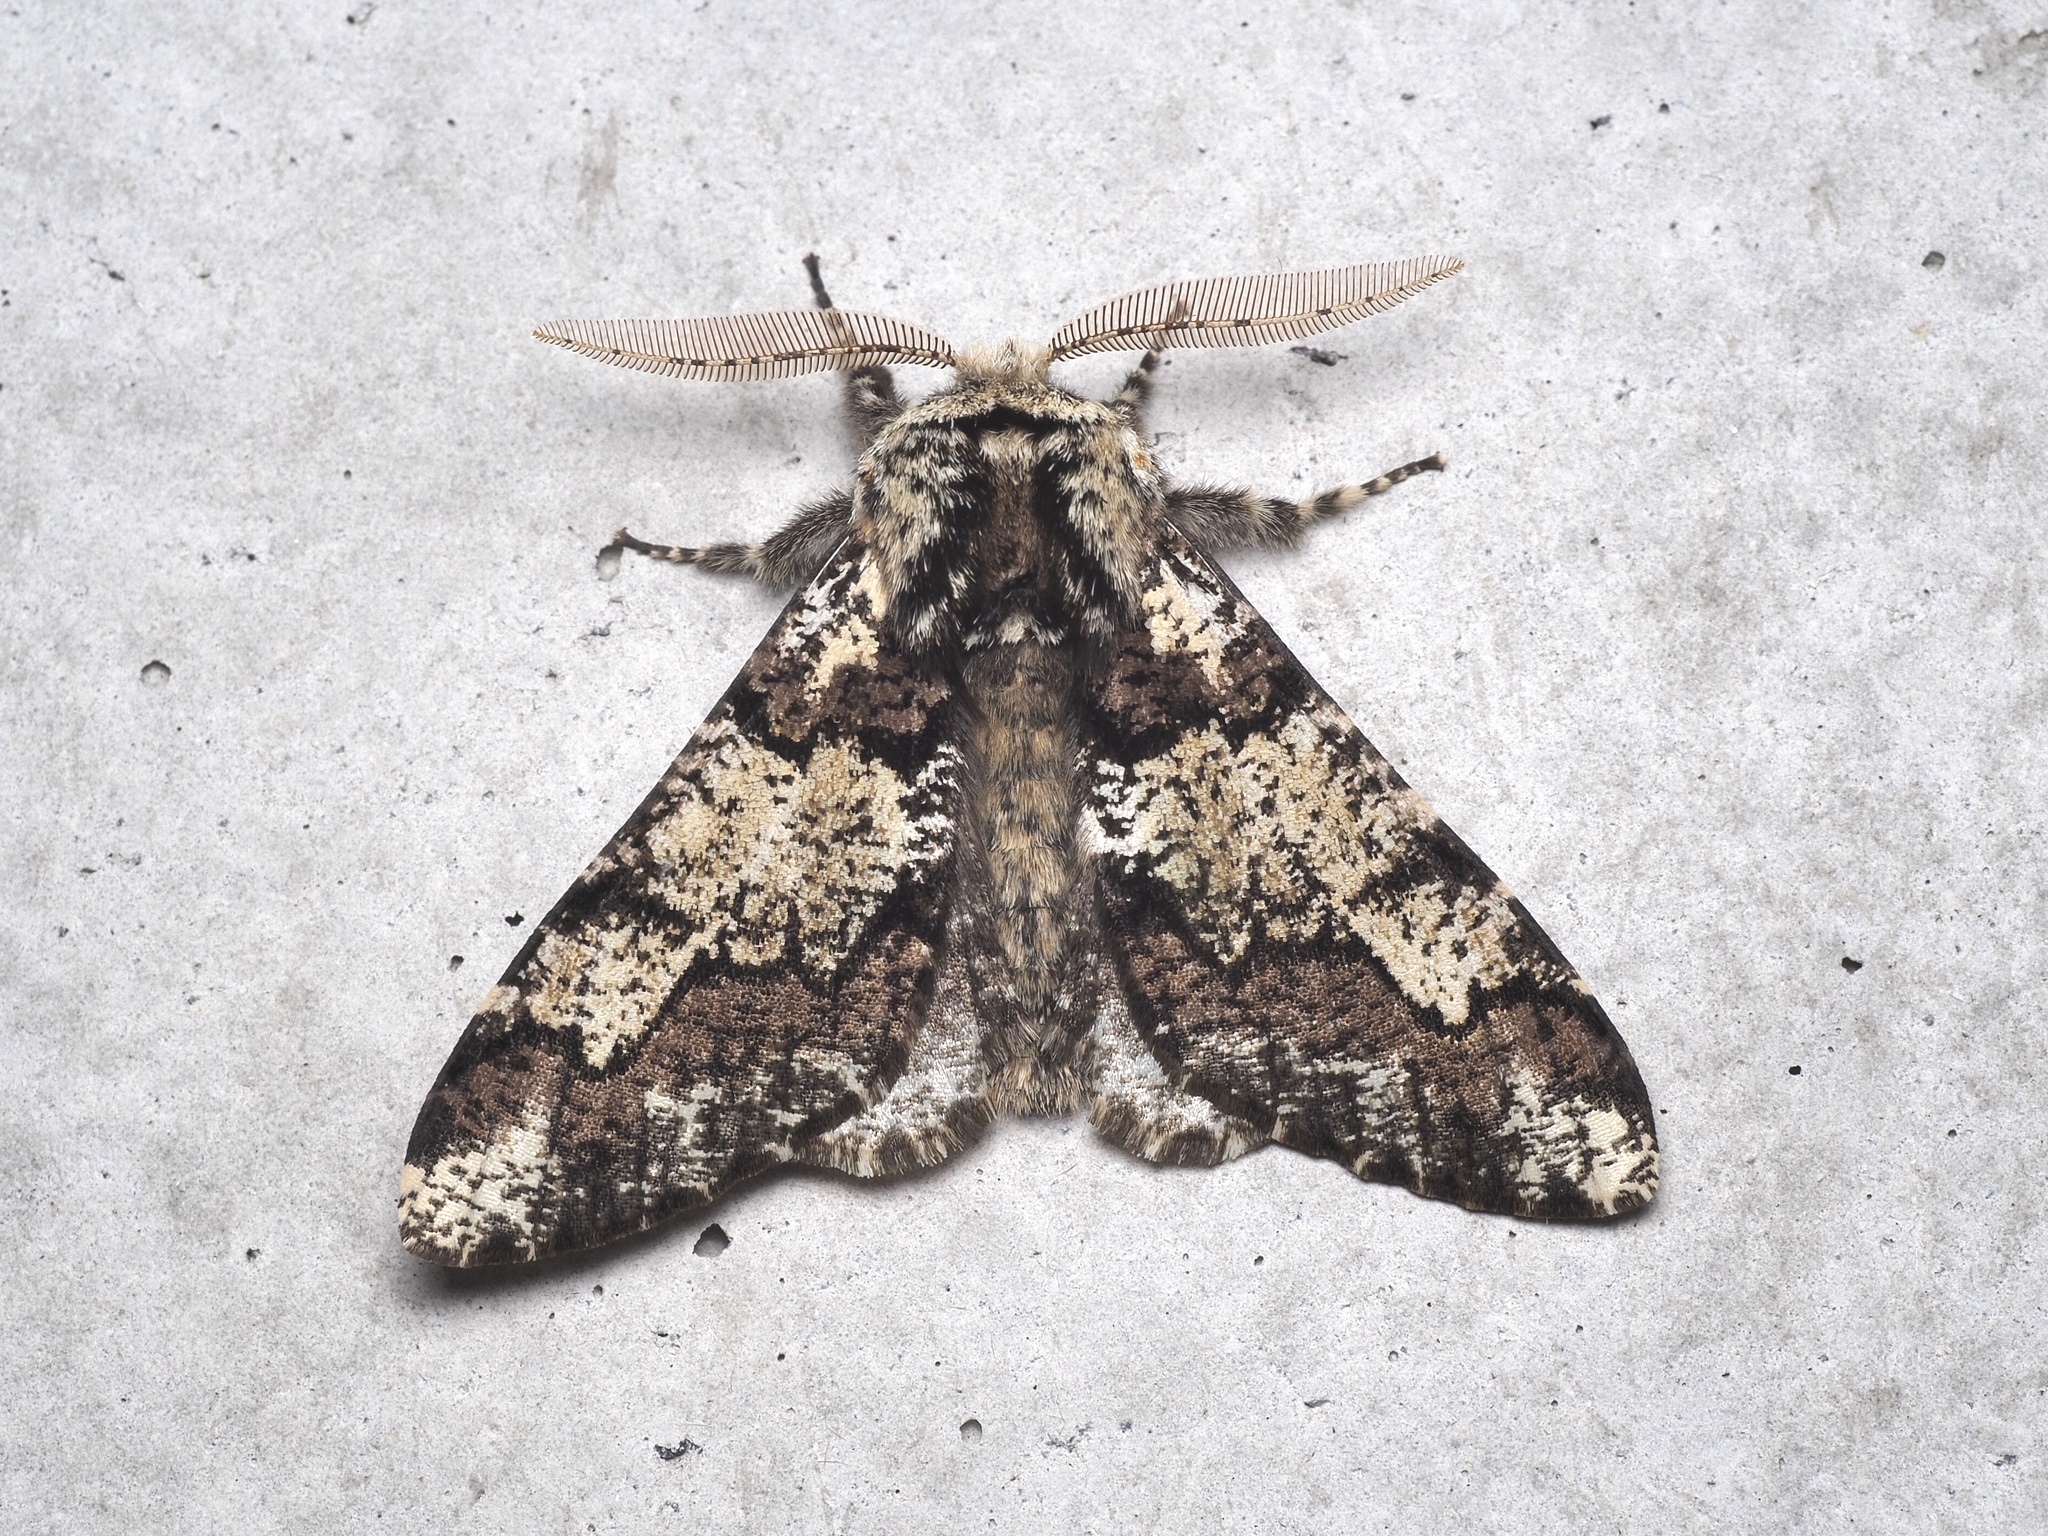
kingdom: Animalia
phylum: Arthropoda
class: Insecta
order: Lepidoptera
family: Geometridae
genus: Biston
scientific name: Biston strataria
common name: Oak beauty
